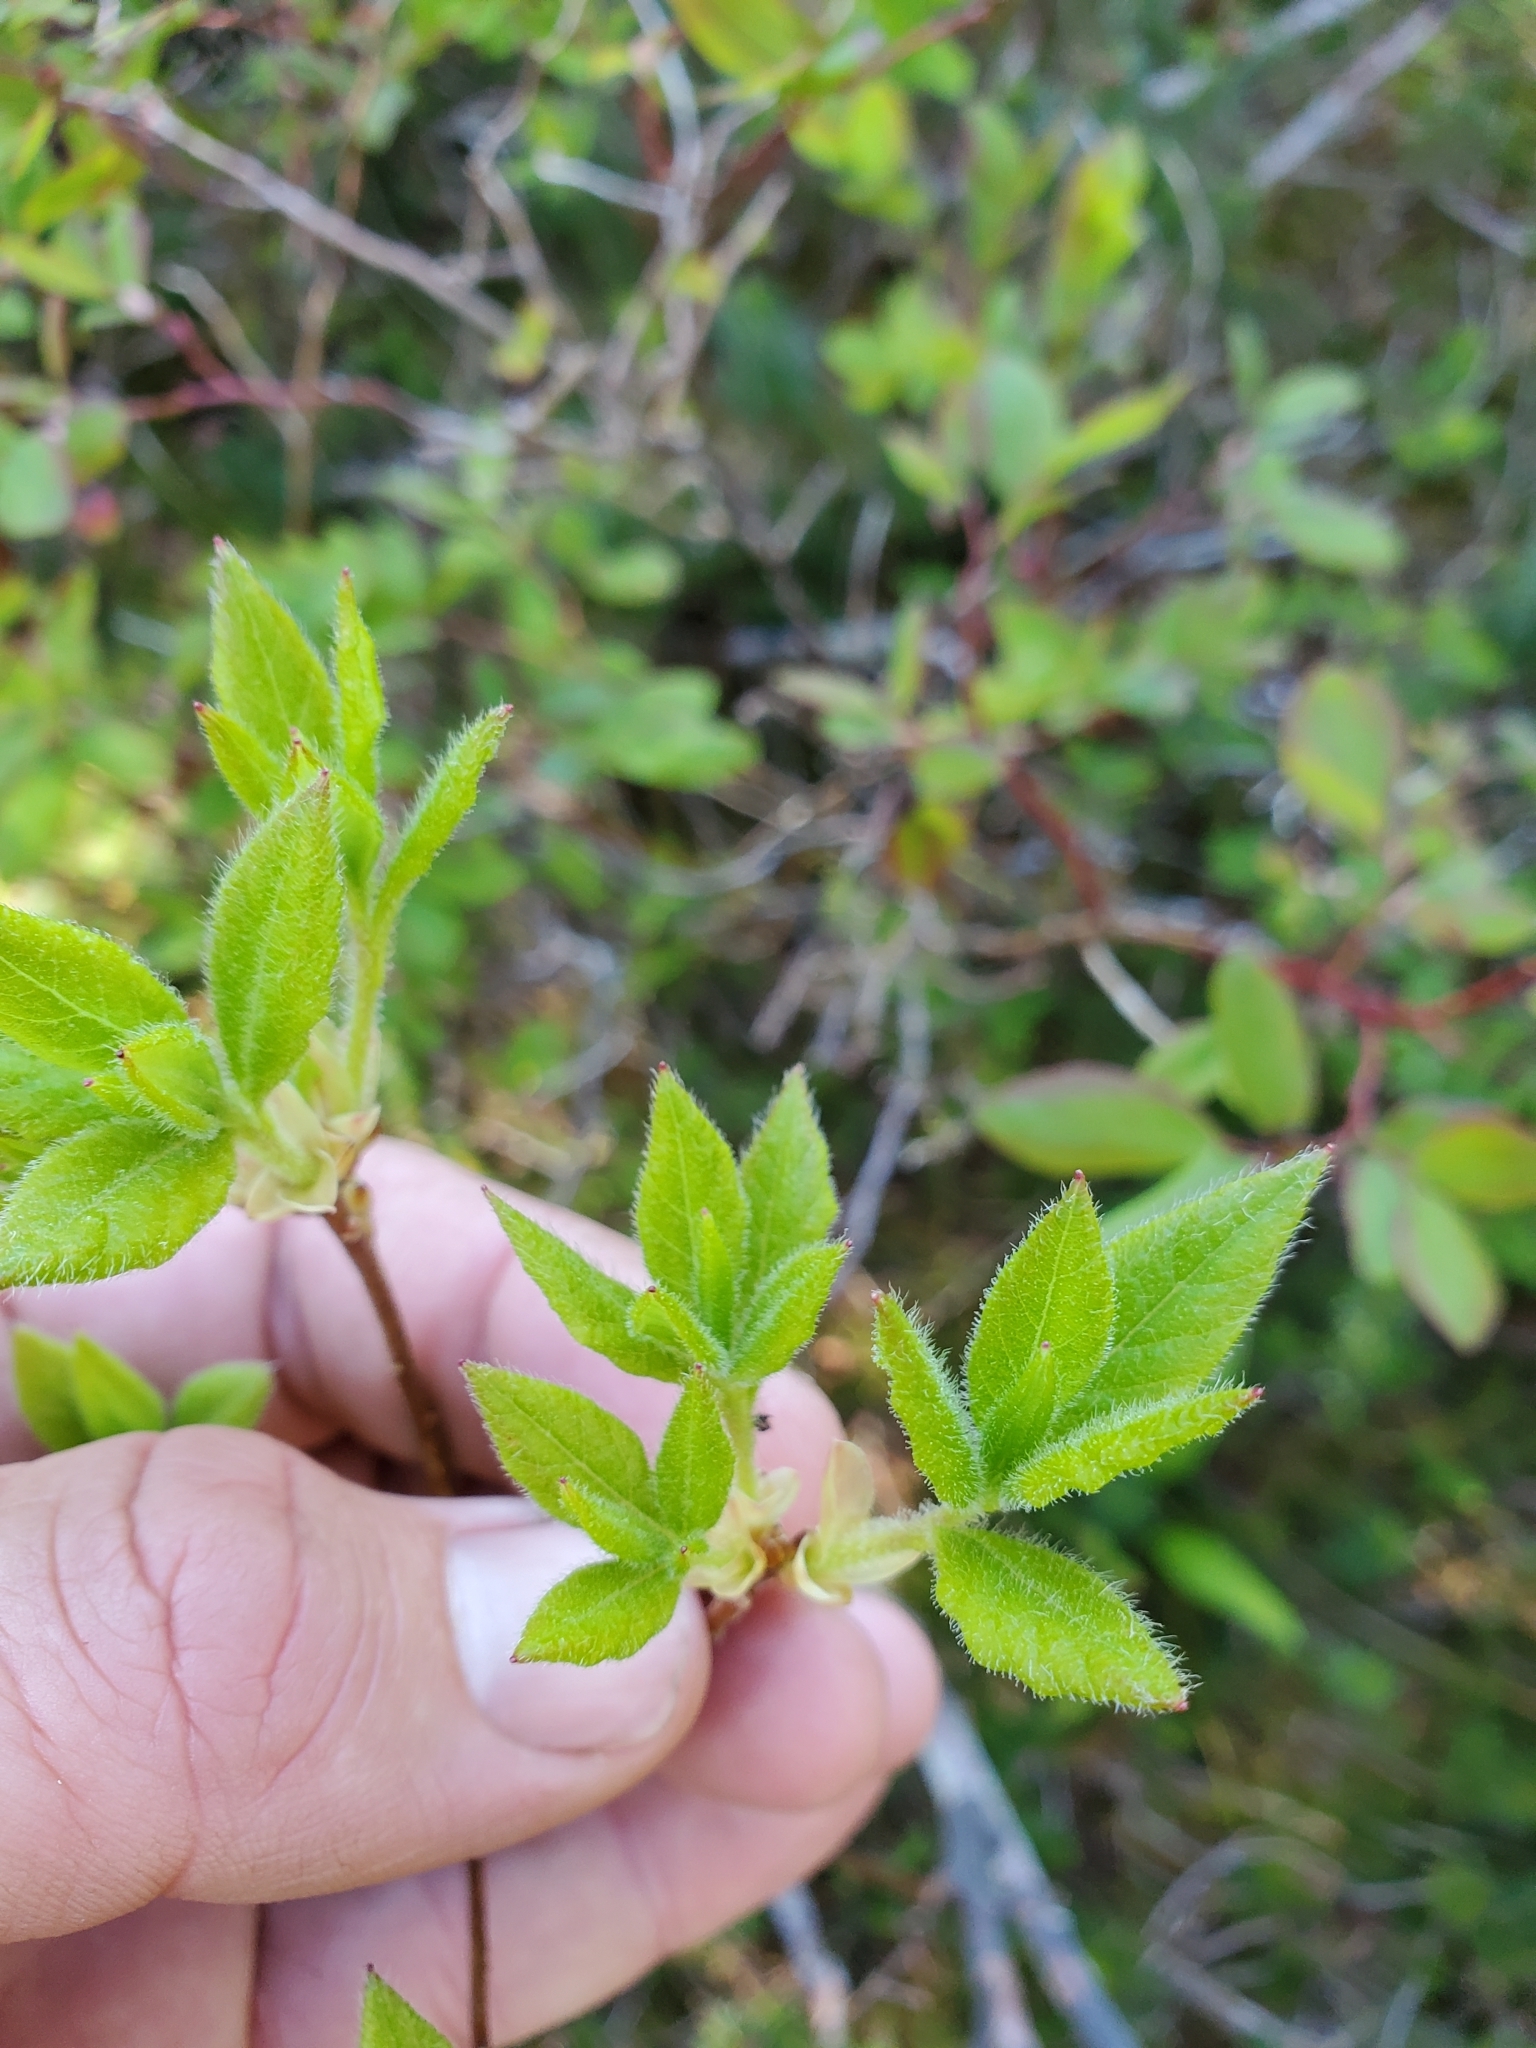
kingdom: Plantae
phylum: Tracheophyta
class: Magnoliopsida
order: Ericales
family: Ericaceae
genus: Rhododendron
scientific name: Rhododendron menziesii
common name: Pacific menziesia
